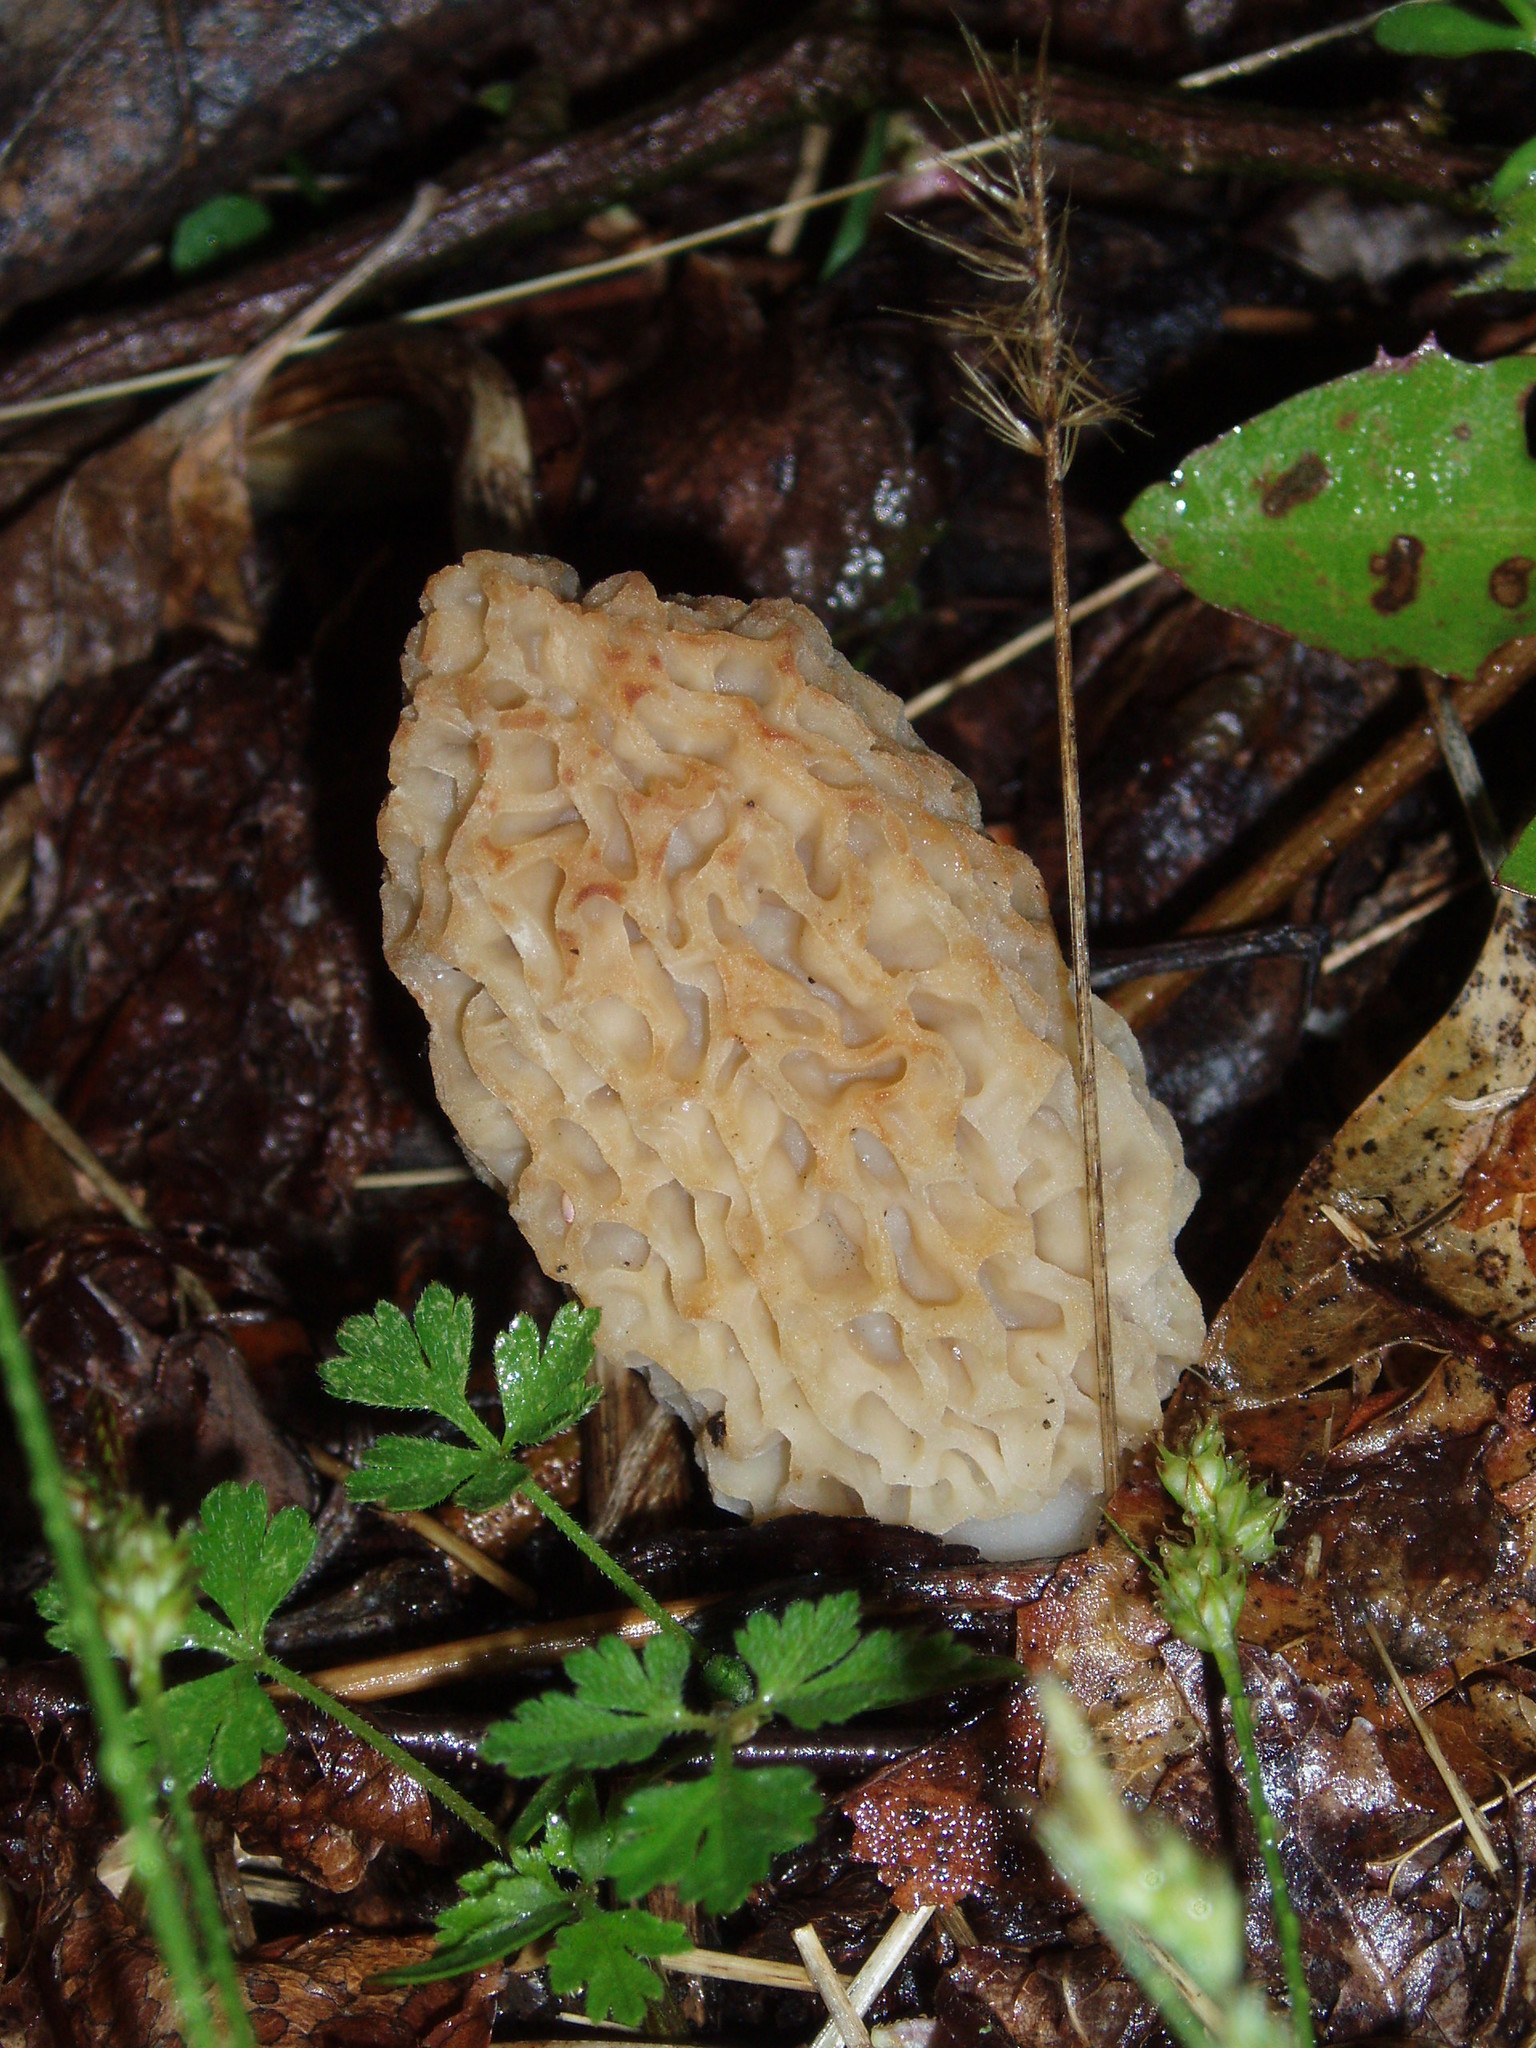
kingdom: Fungi
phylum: Ascomycota
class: Pezizomycetes
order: Pezizales
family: Morchellaceae
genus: Morchella
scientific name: Morchella americana
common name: White morel
